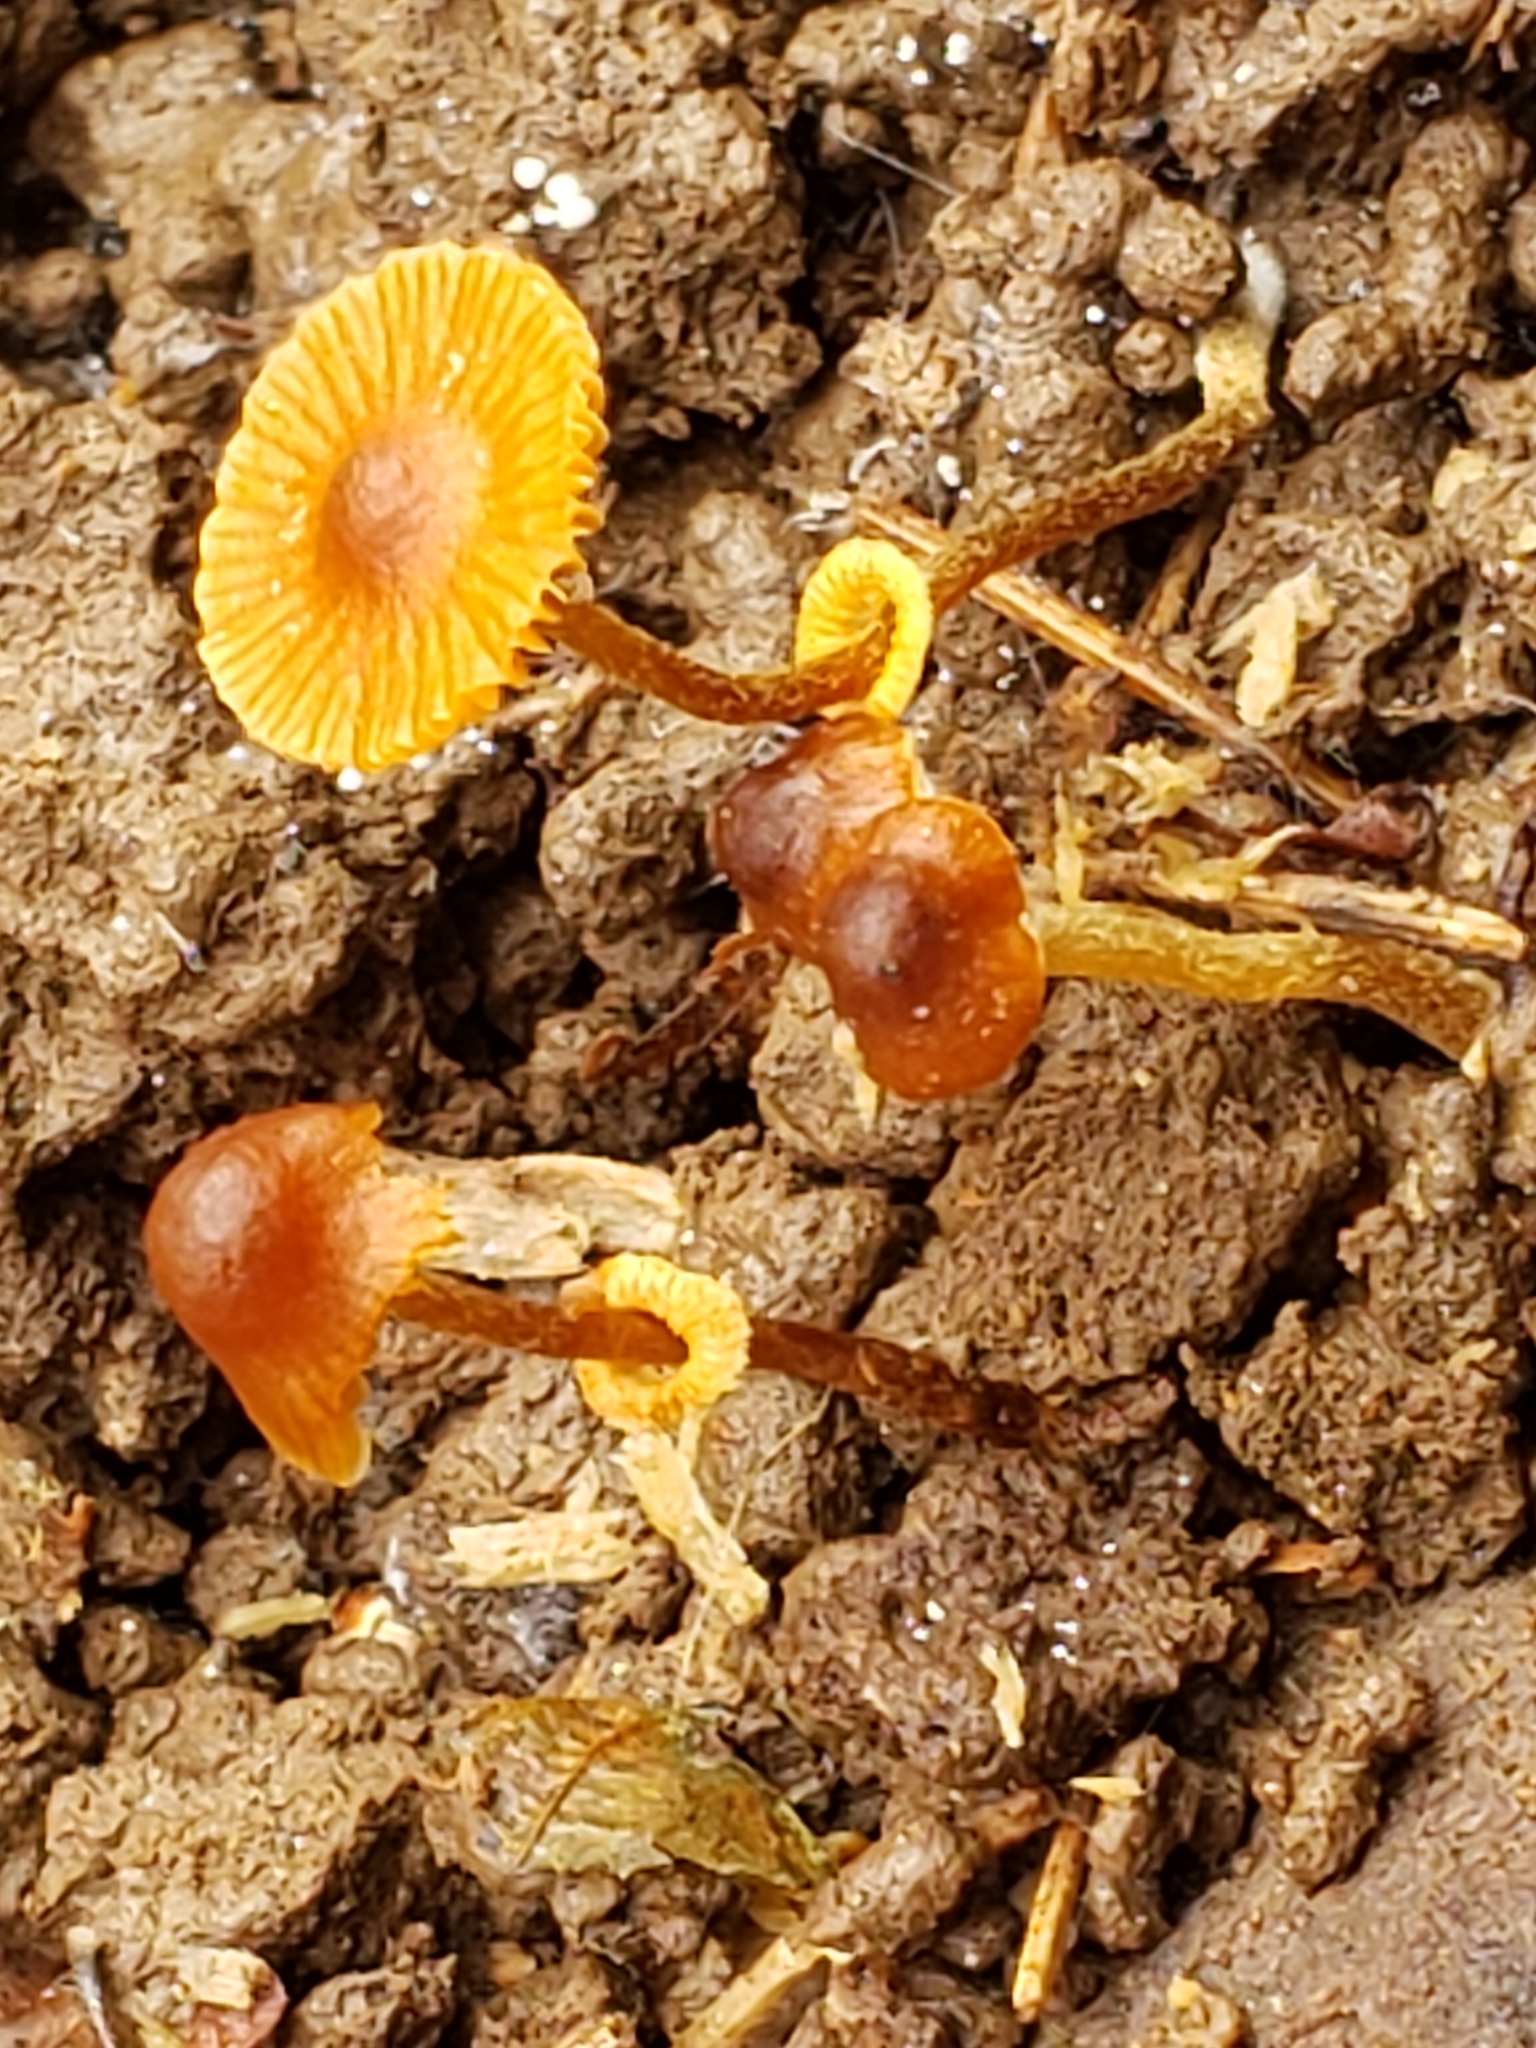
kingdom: Fungi
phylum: Basidiomycota
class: Agaricomycetes
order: Agaricales
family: Bolbitiaceae
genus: Conocybe
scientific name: Conocybe rugosa
